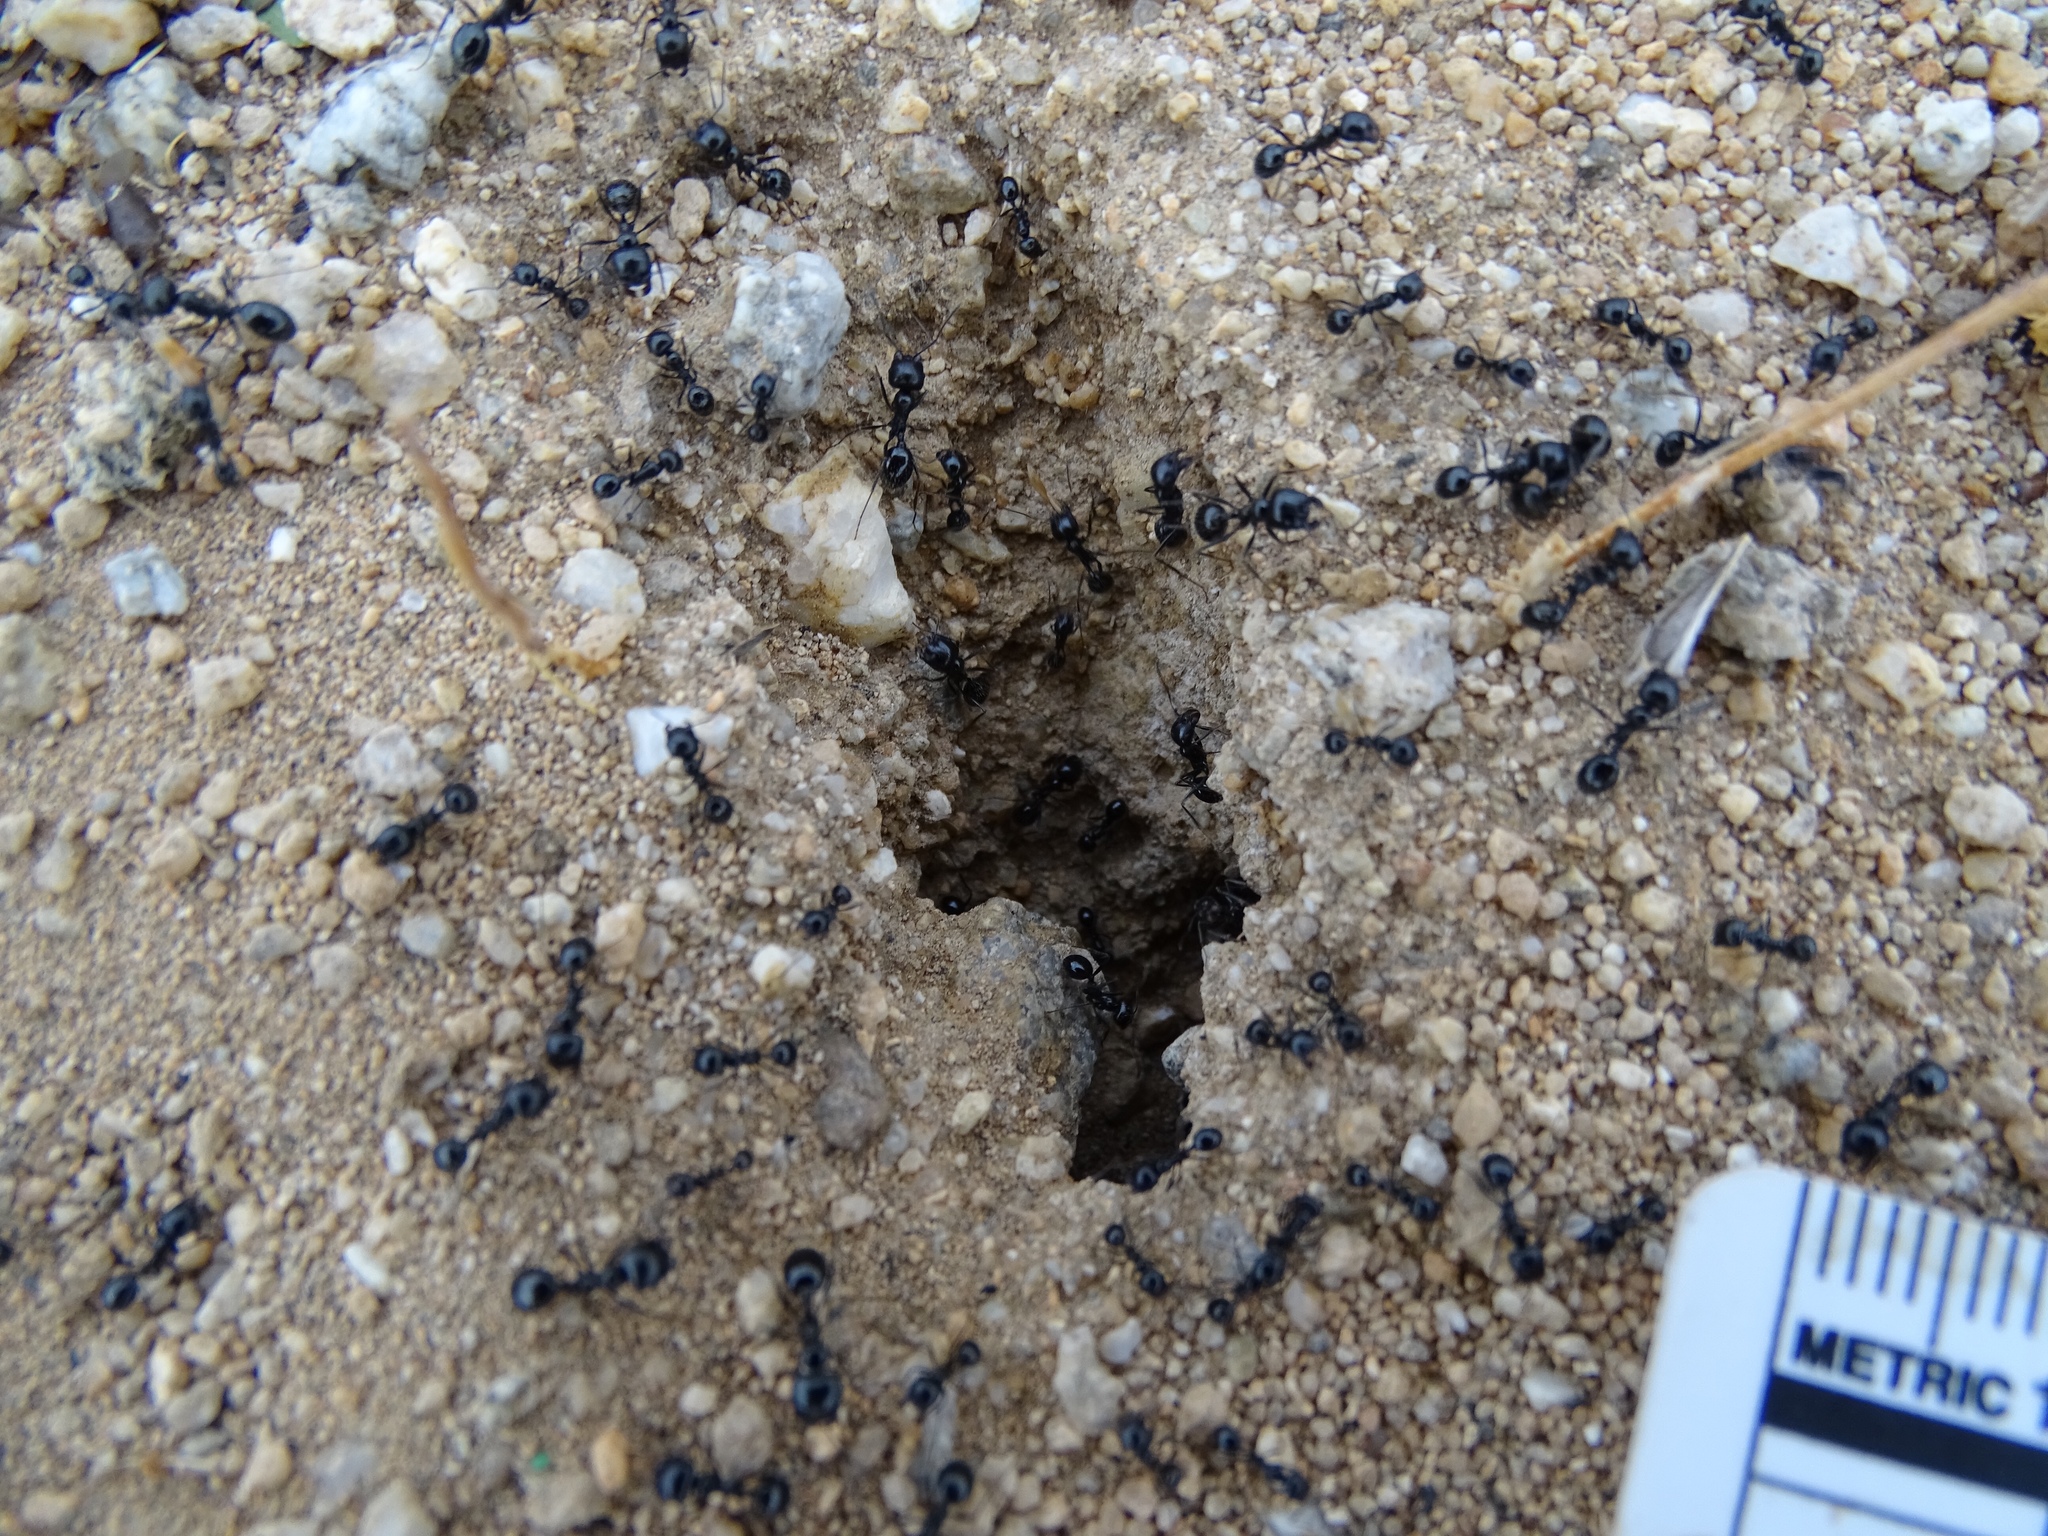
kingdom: Animalia
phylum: Arthropoda
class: Insecta
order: Hymenoptera
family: Formicidae
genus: Messor
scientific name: Messor pergandei
